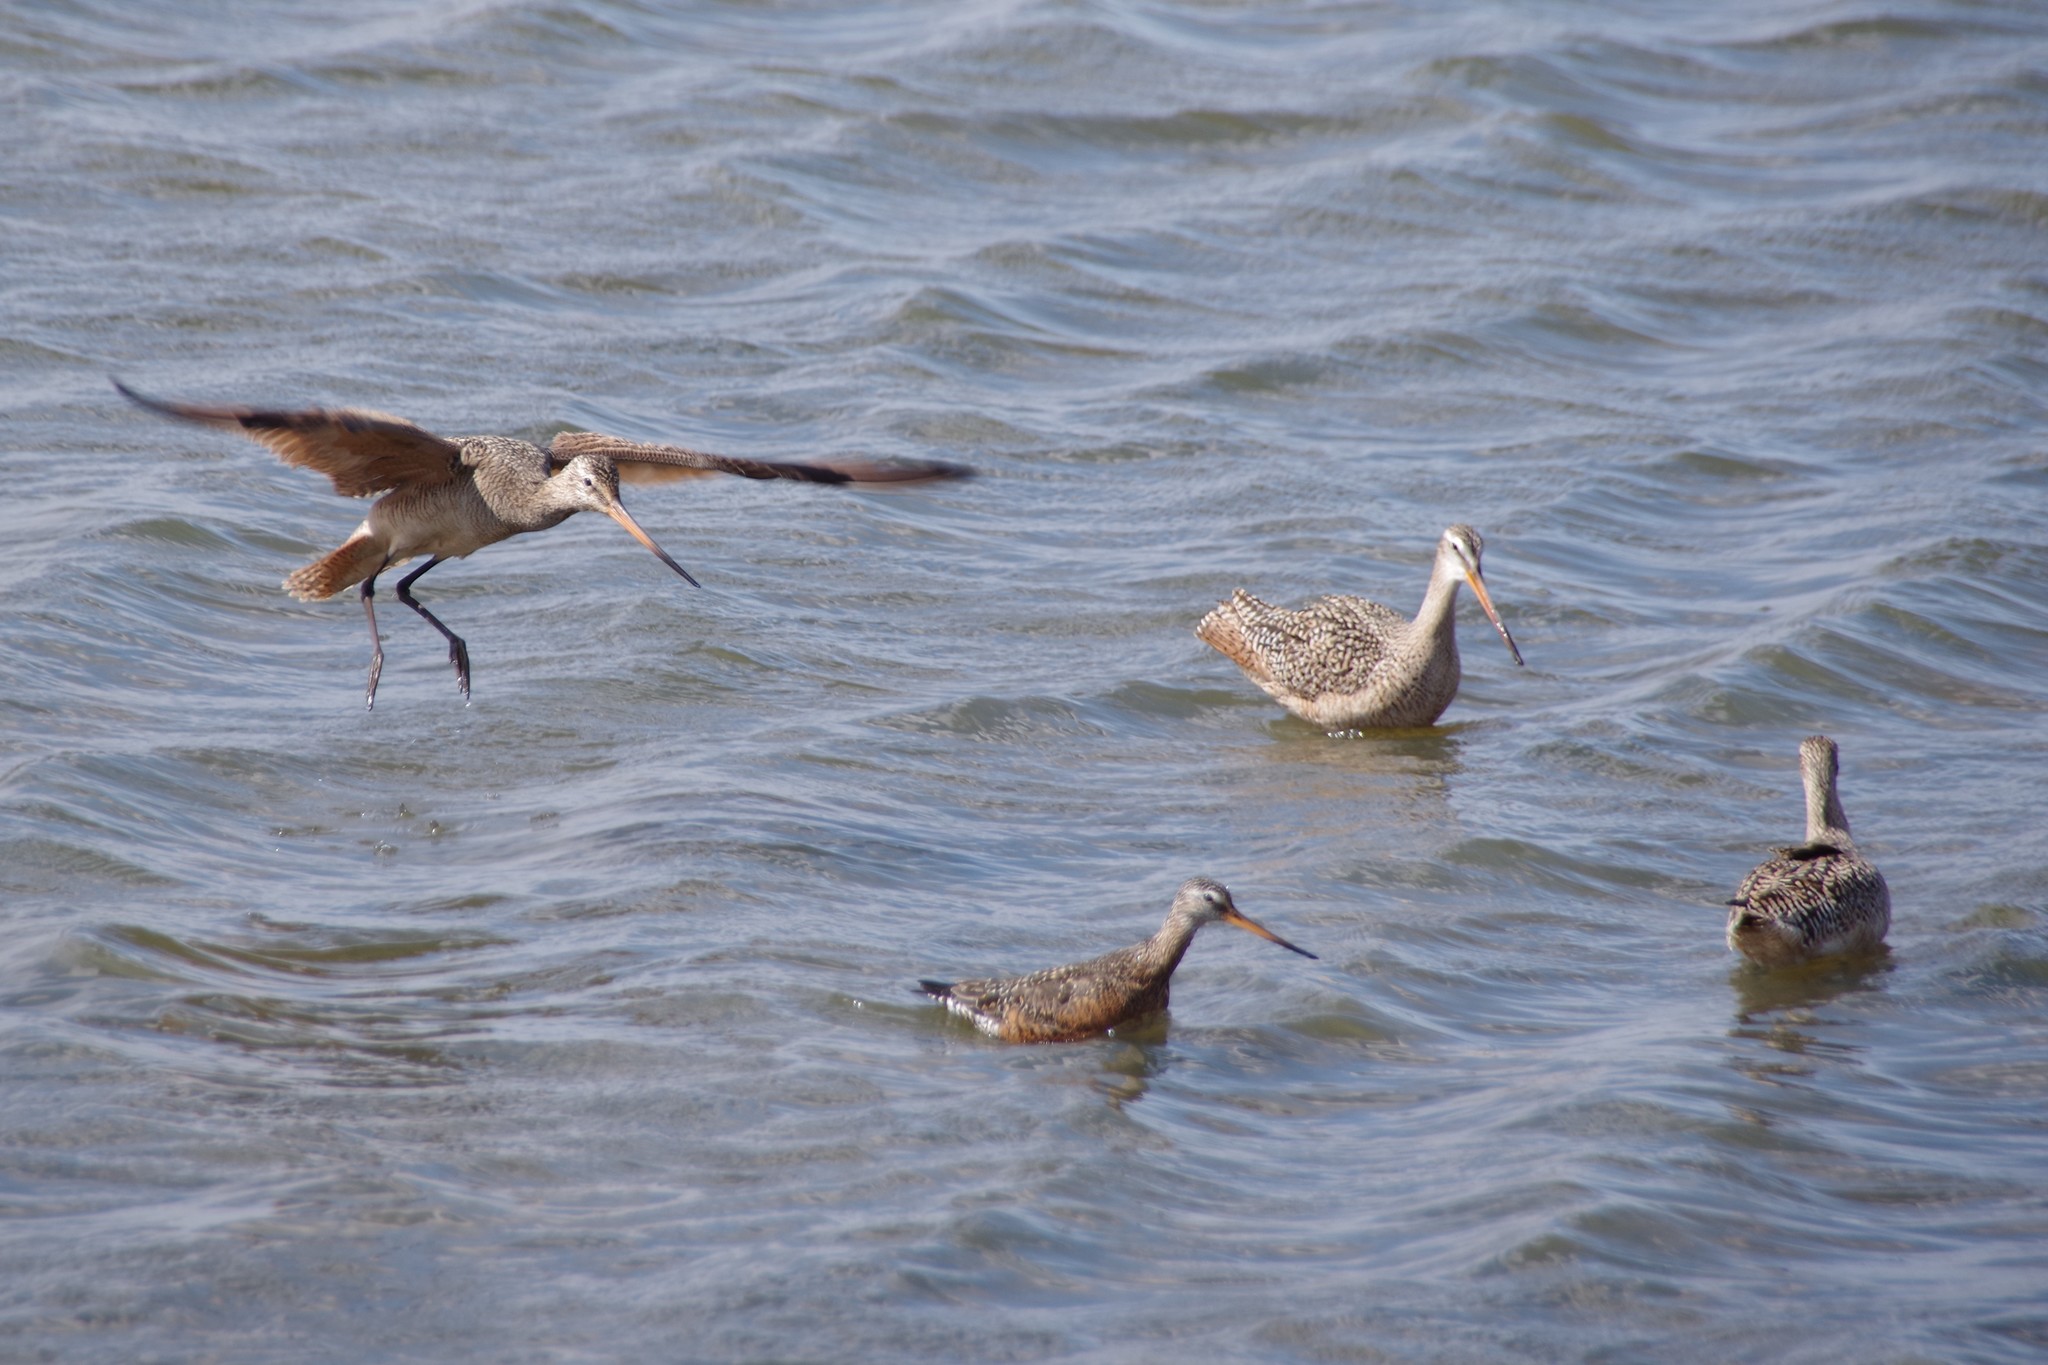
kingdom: Animalia
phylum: Chordata
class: Aves
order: Charadriiformes
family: Scolopacidae
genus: Limosa
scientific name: Limosa fedoa
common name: Marbled godwit
